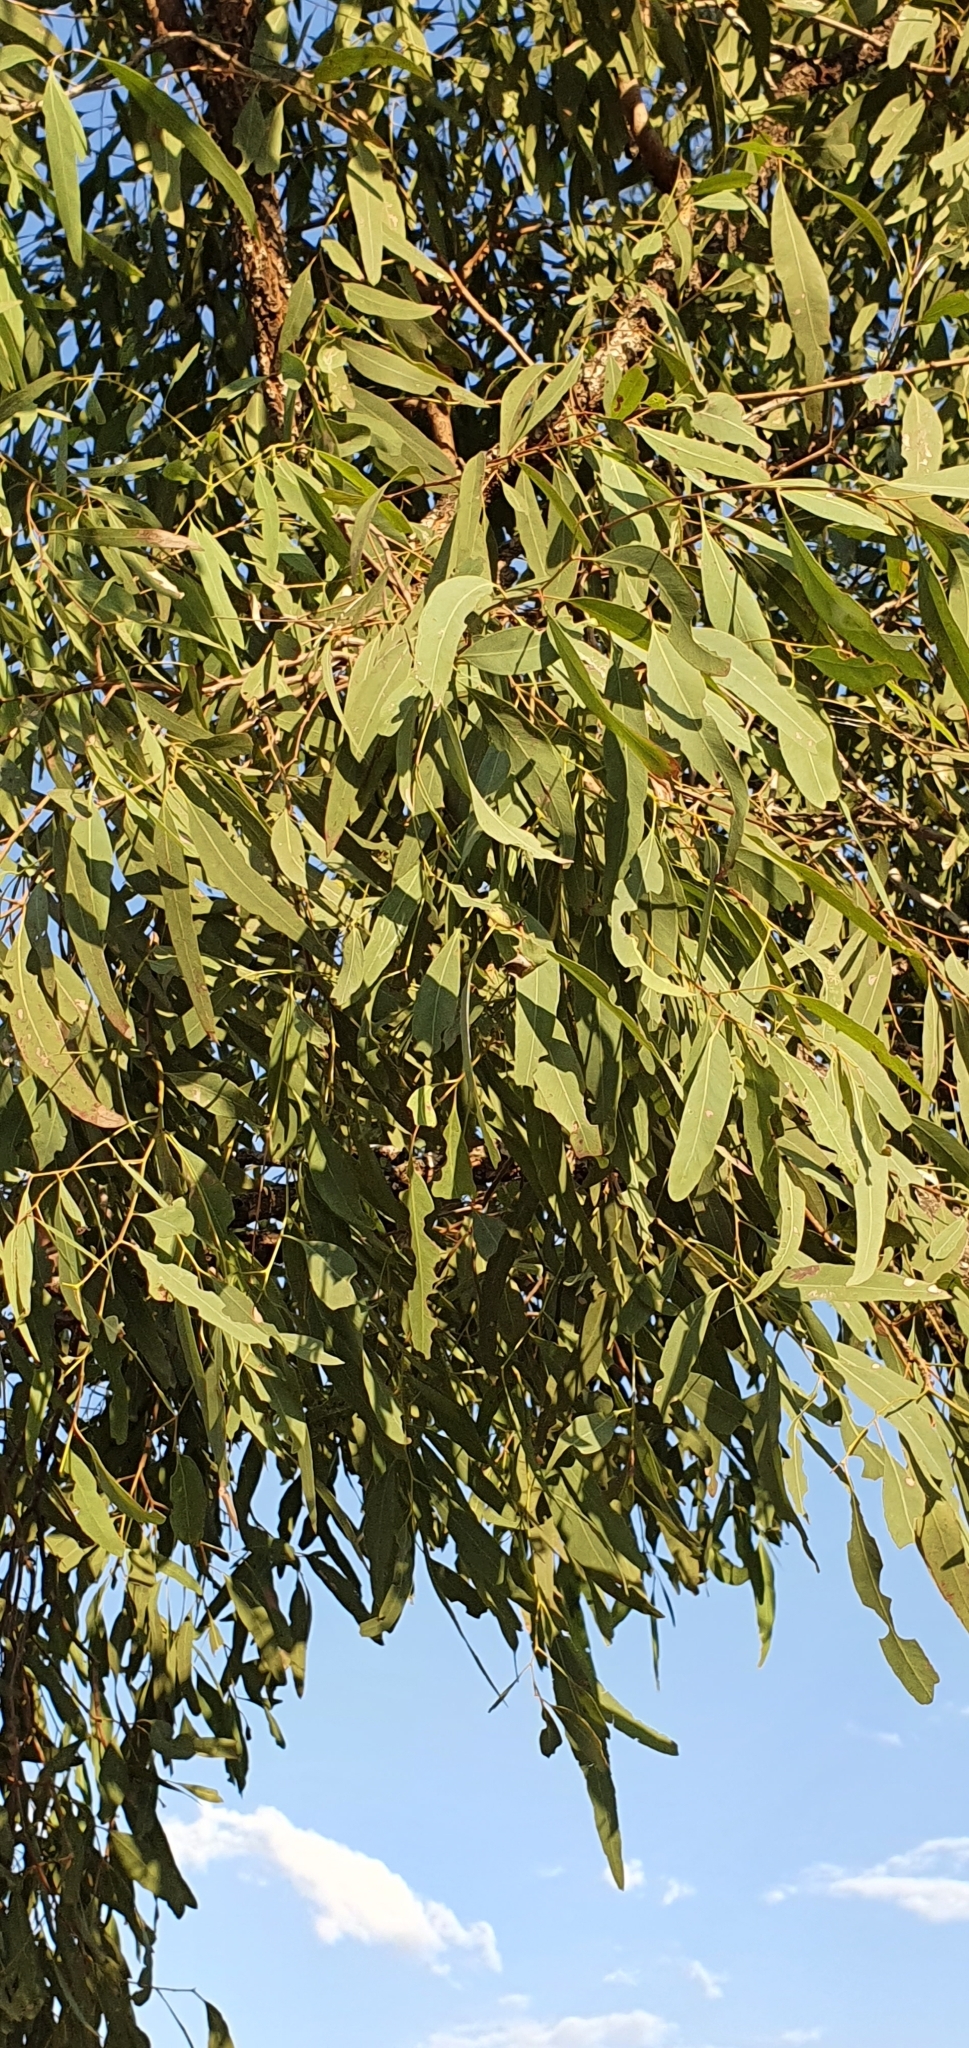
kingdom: Plantae
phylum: Tracheophyta
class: Magnoliopsida
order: Myrtales
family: Myrtaceae
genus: Eucalyptus
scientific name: Eucalyptus crebra
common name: Narrowleaf red ironbark
